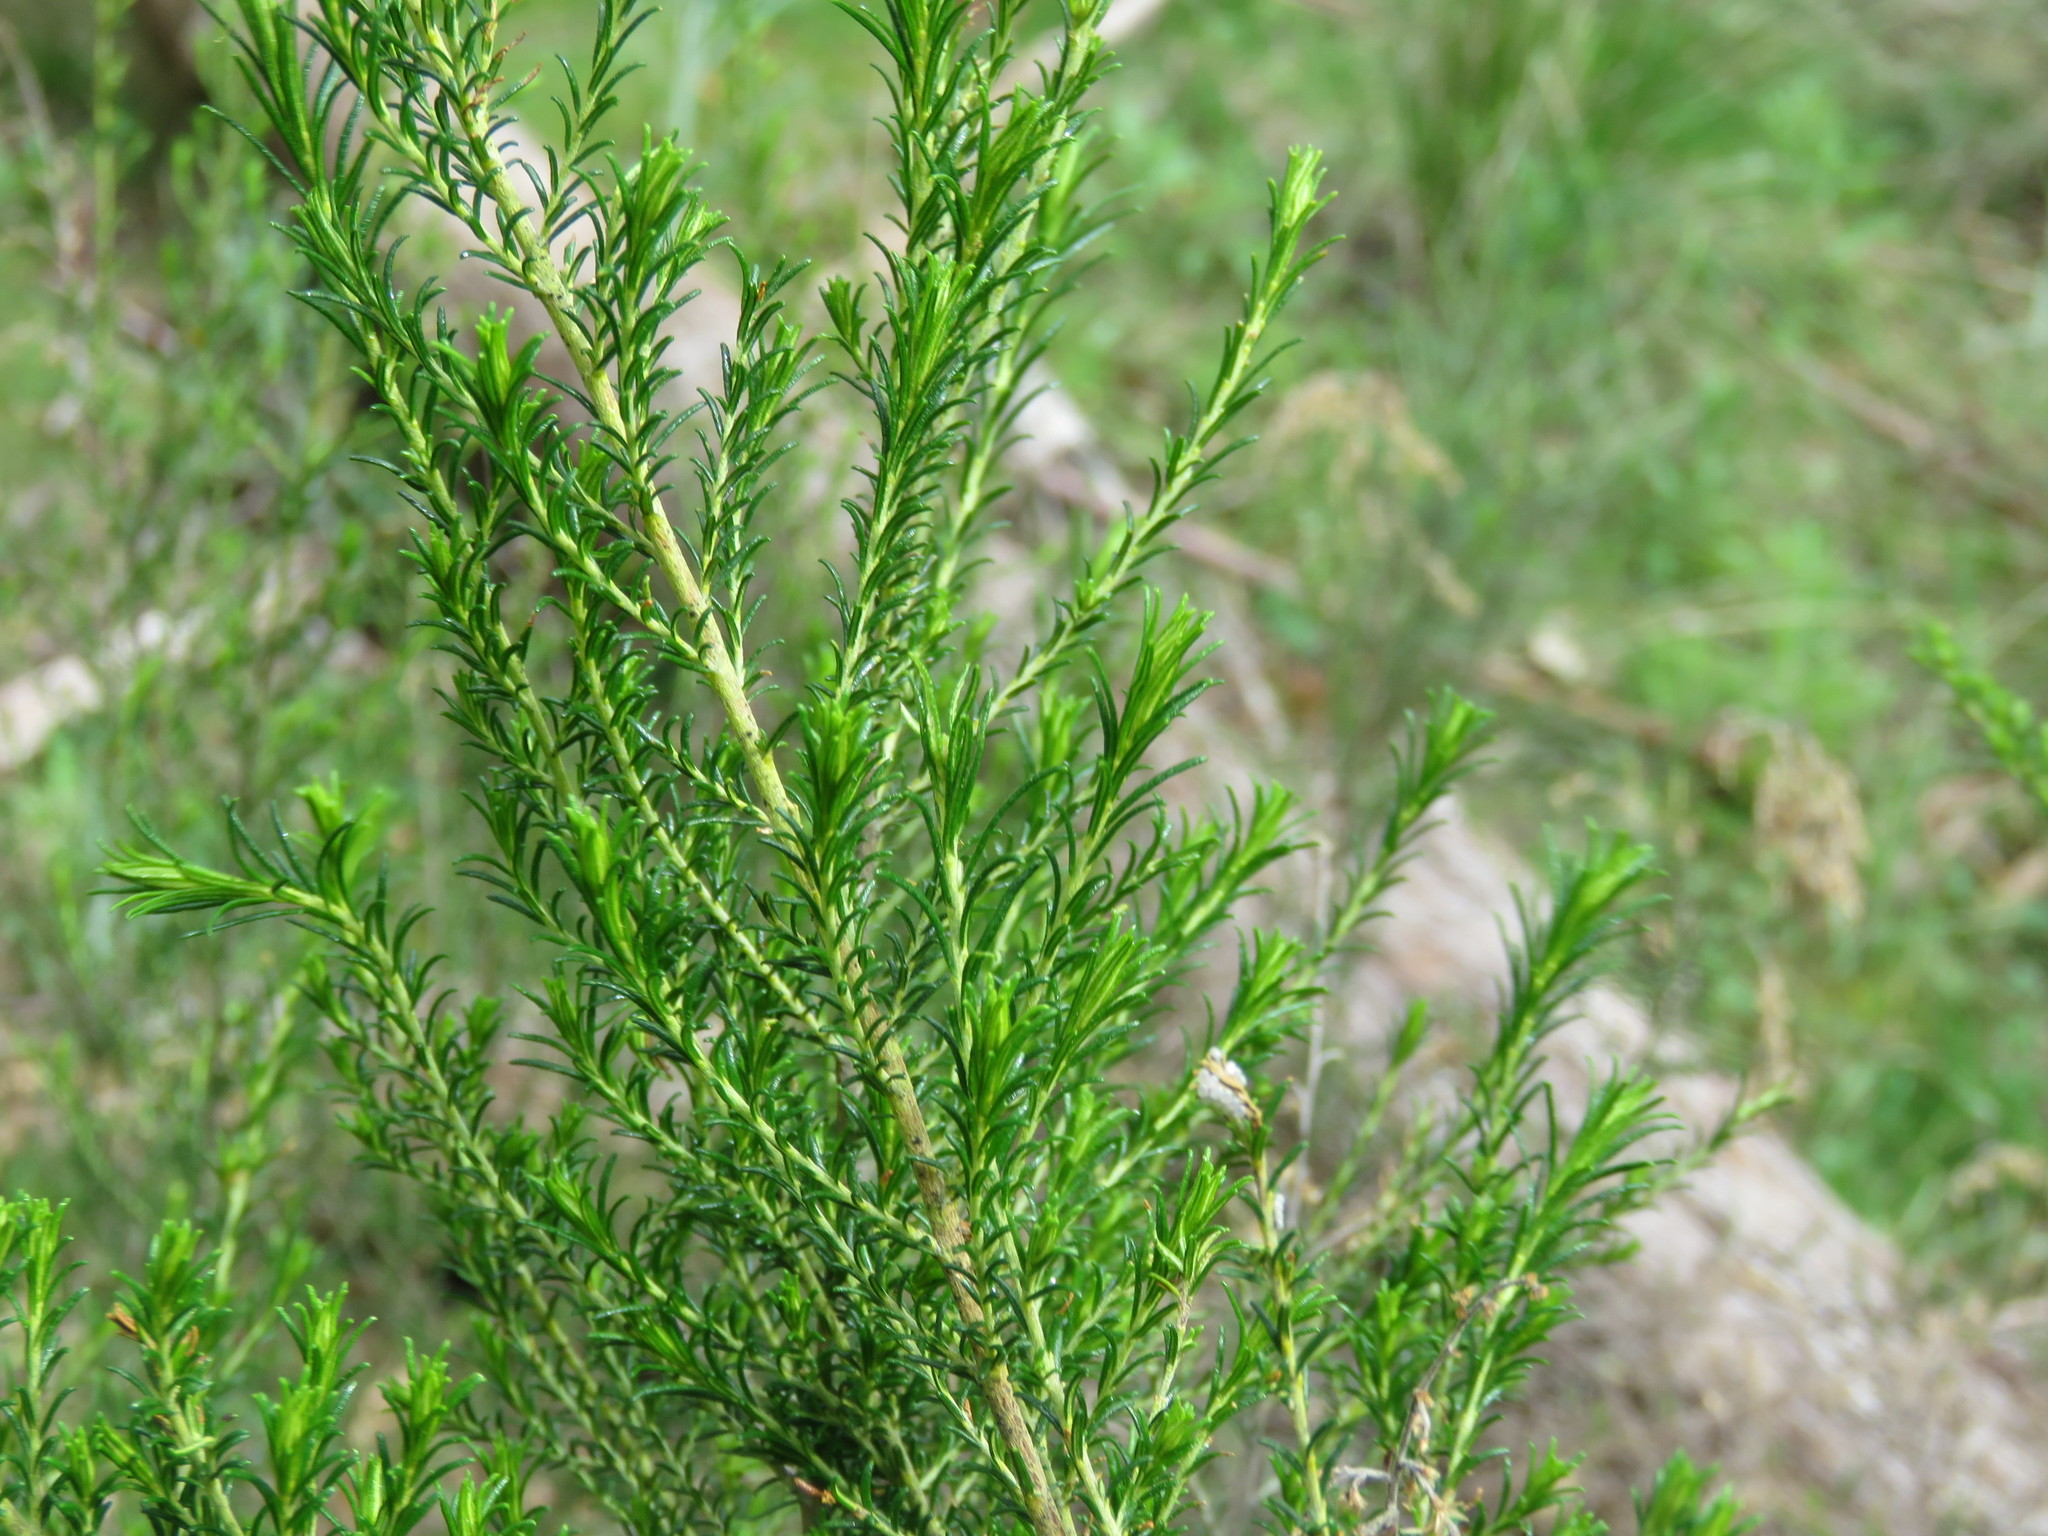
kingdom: Plantae
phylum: Tracheophyta
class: Magnoliopsida
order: Asterales
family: Asteraceae
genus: Cassinia
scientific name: Cassinia sifton
